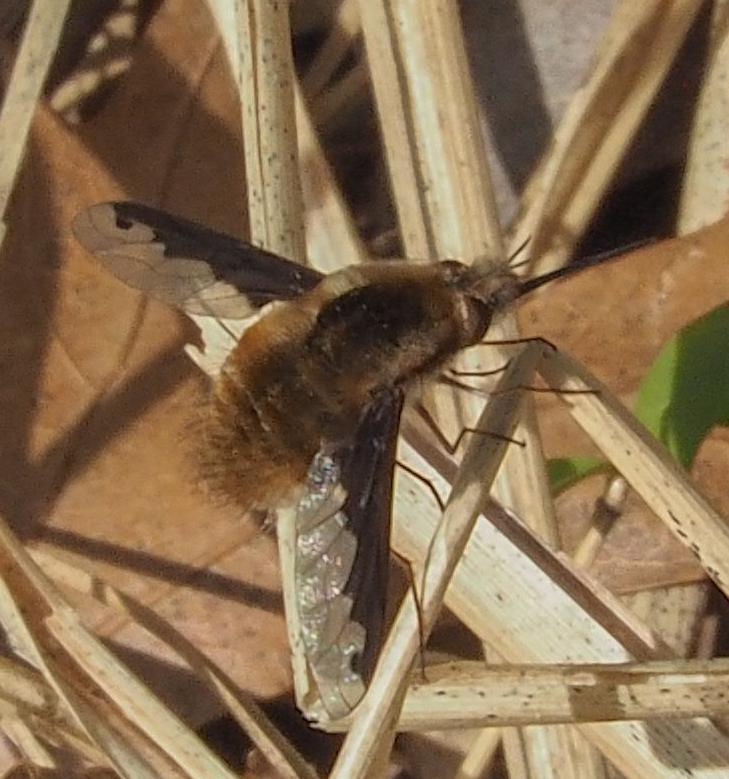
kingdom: Animalia
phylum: Arthropoda
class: Insecta
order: Diptera
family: Bombyliidae
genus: Bombylius
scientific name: Bombylius major
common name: Bee fly
